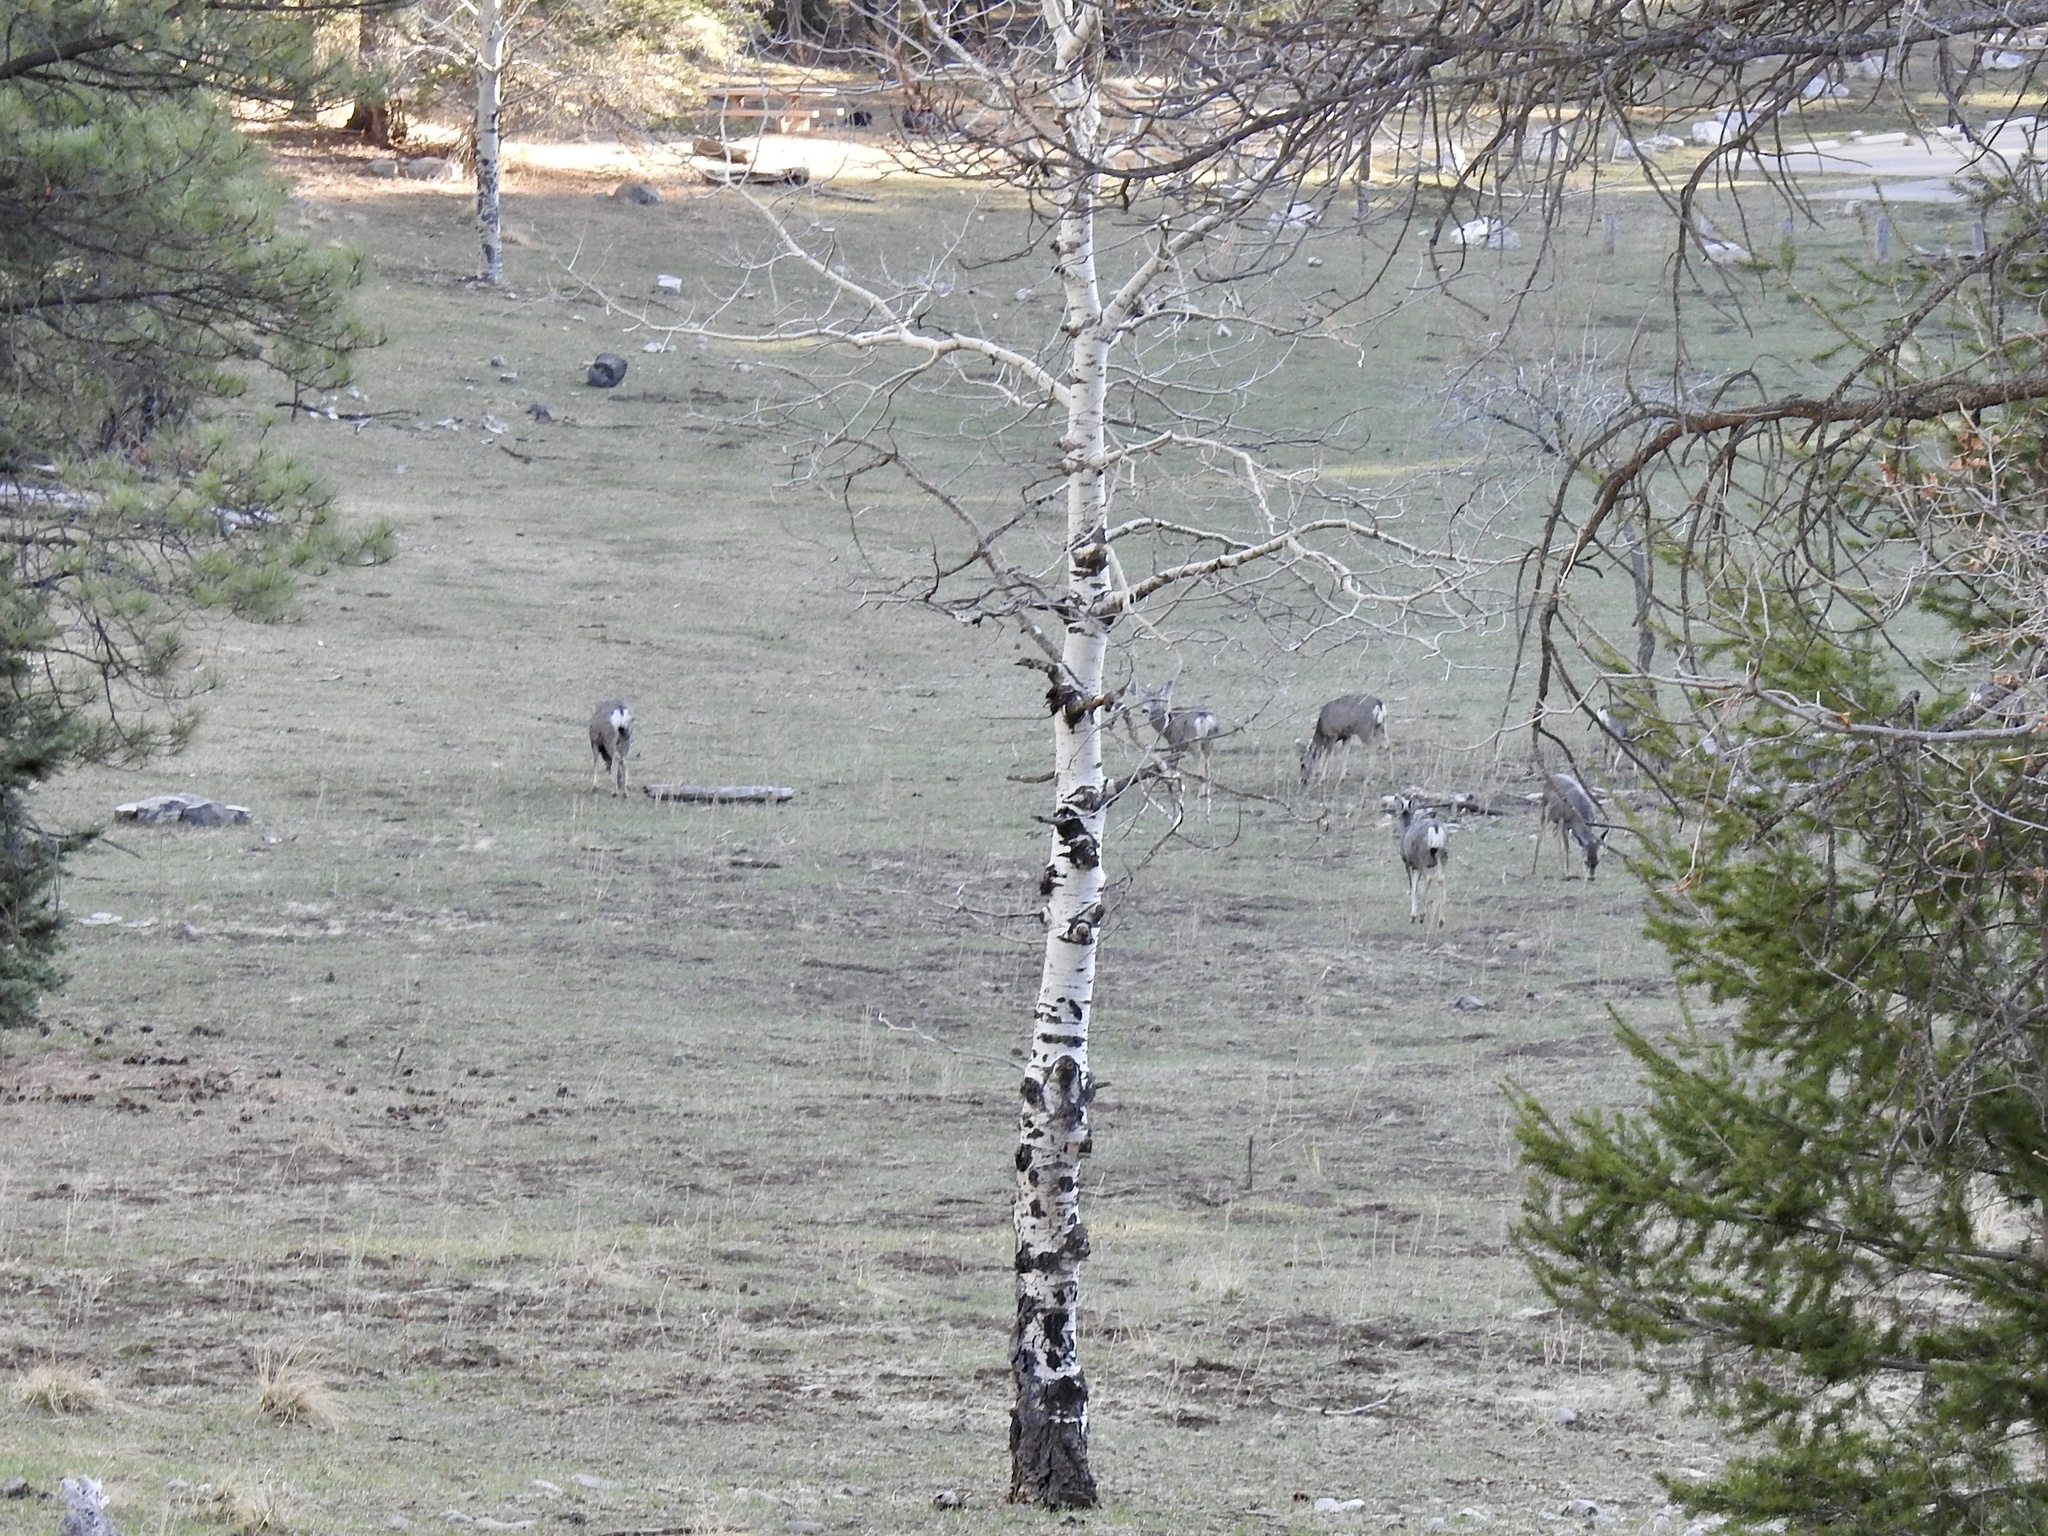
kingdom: Animalia
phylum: Chordata
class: Mammalia
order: Artiodactyla
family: Cervidae
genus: Odocoileus
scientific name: Odocoileus hemionus
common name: Mule deer
